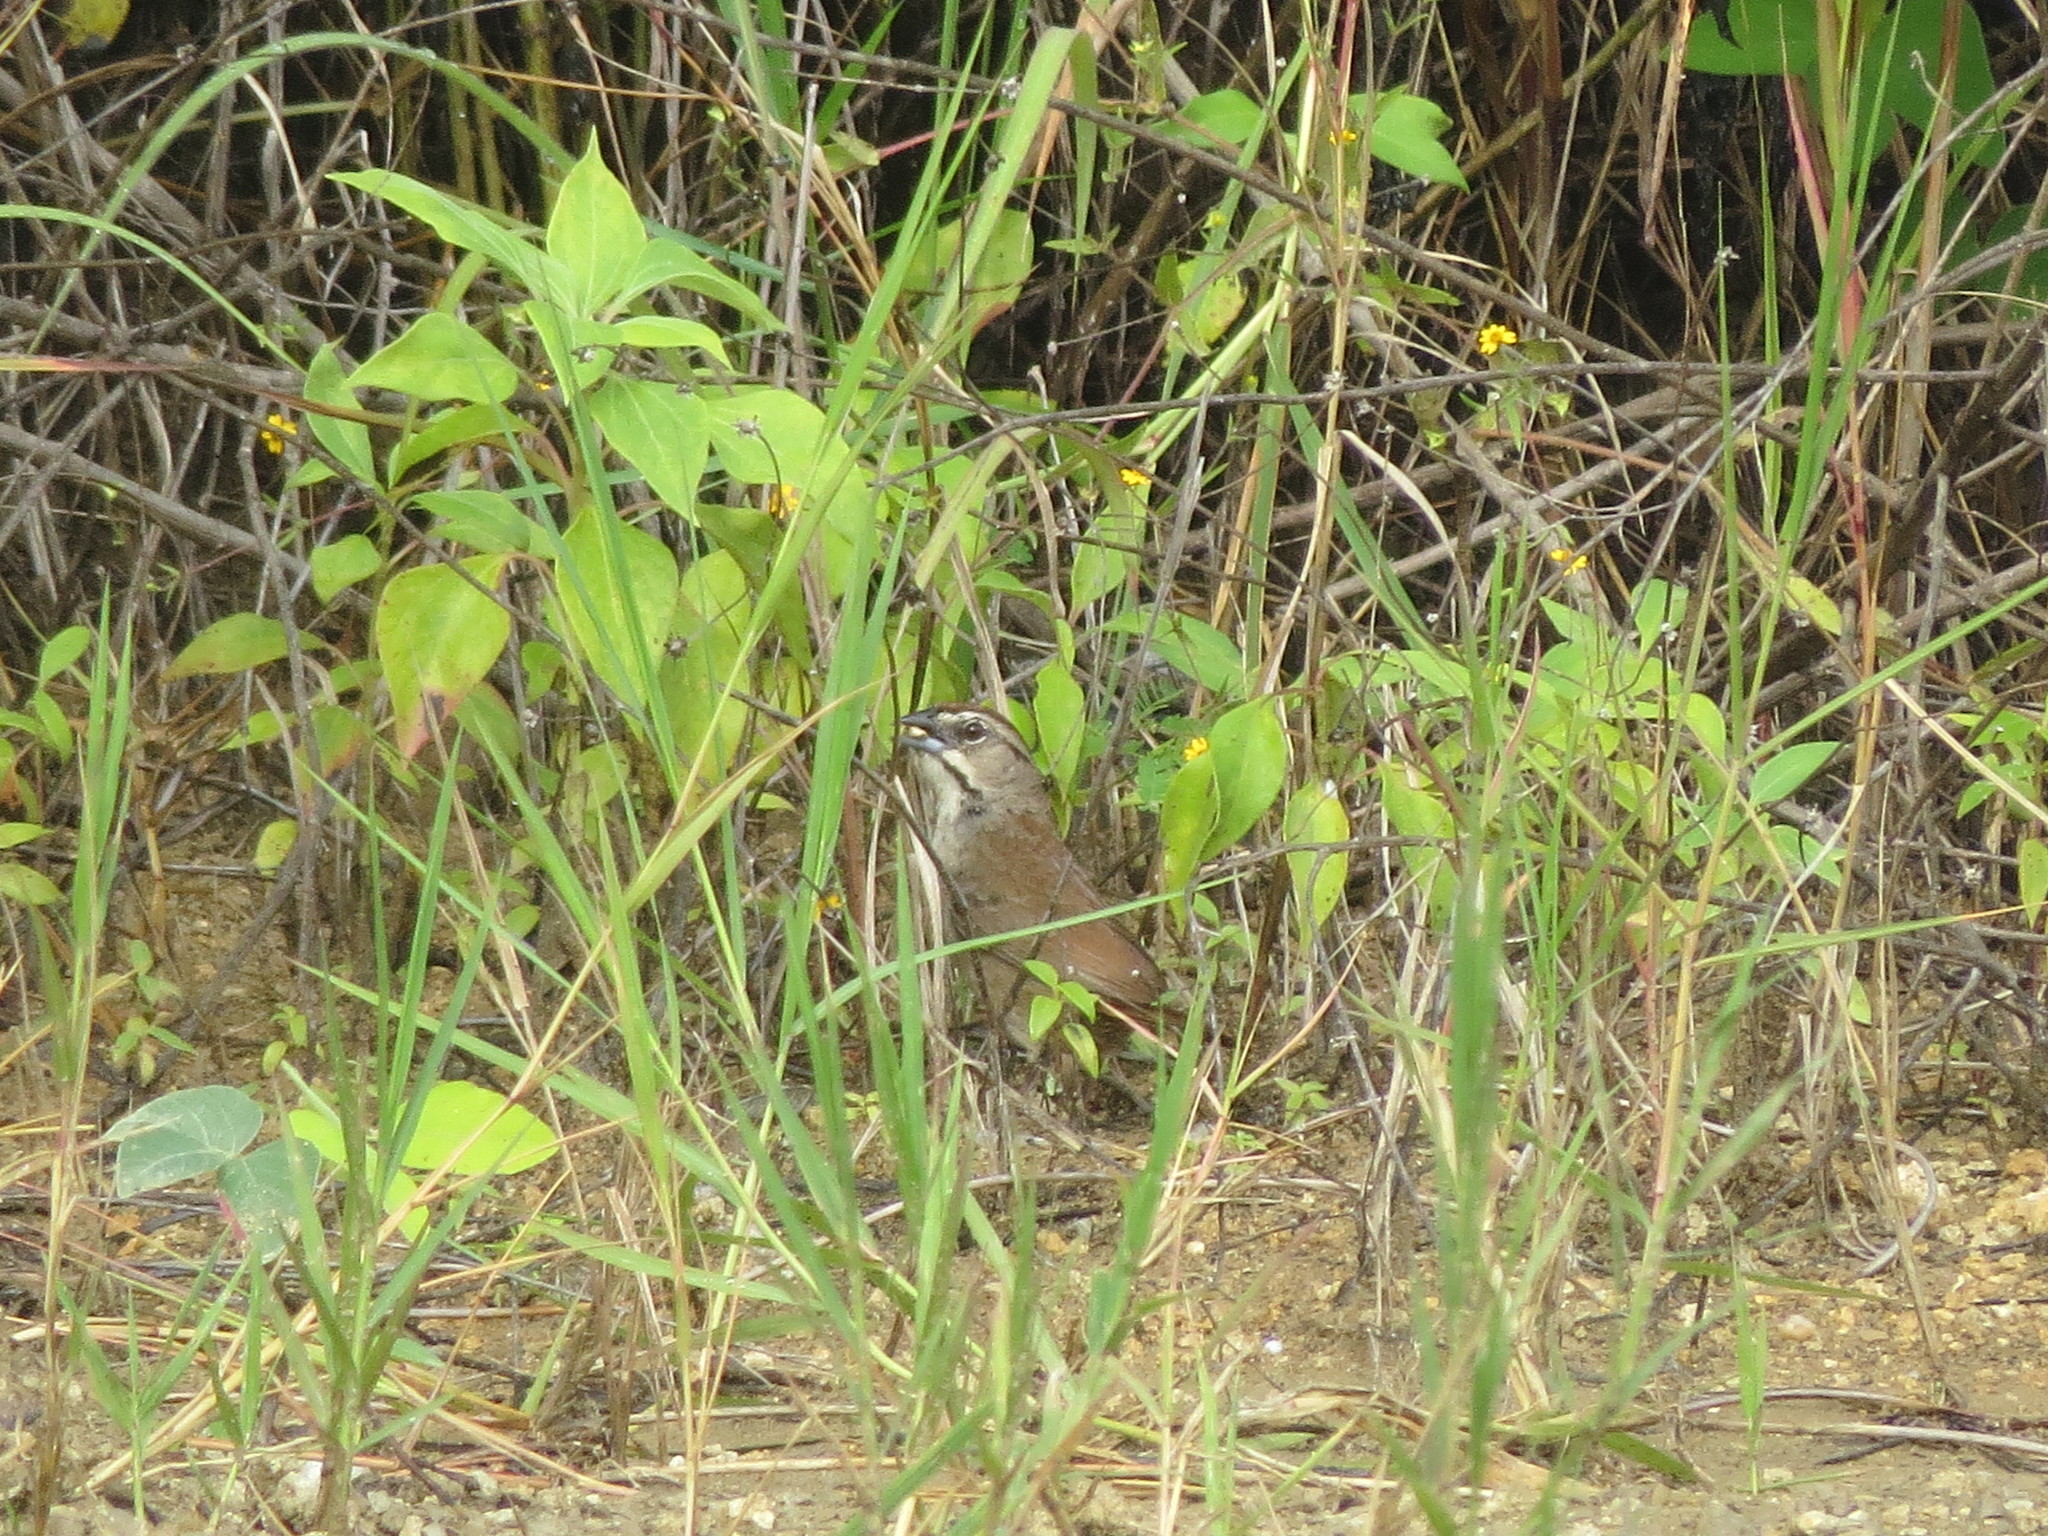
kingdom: Animalia
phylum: Chordata
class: Aves
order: Passeriformes
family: Passerellidae
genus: Aimophila
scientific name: Aimophila rufescens
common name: Rusty sparrow
